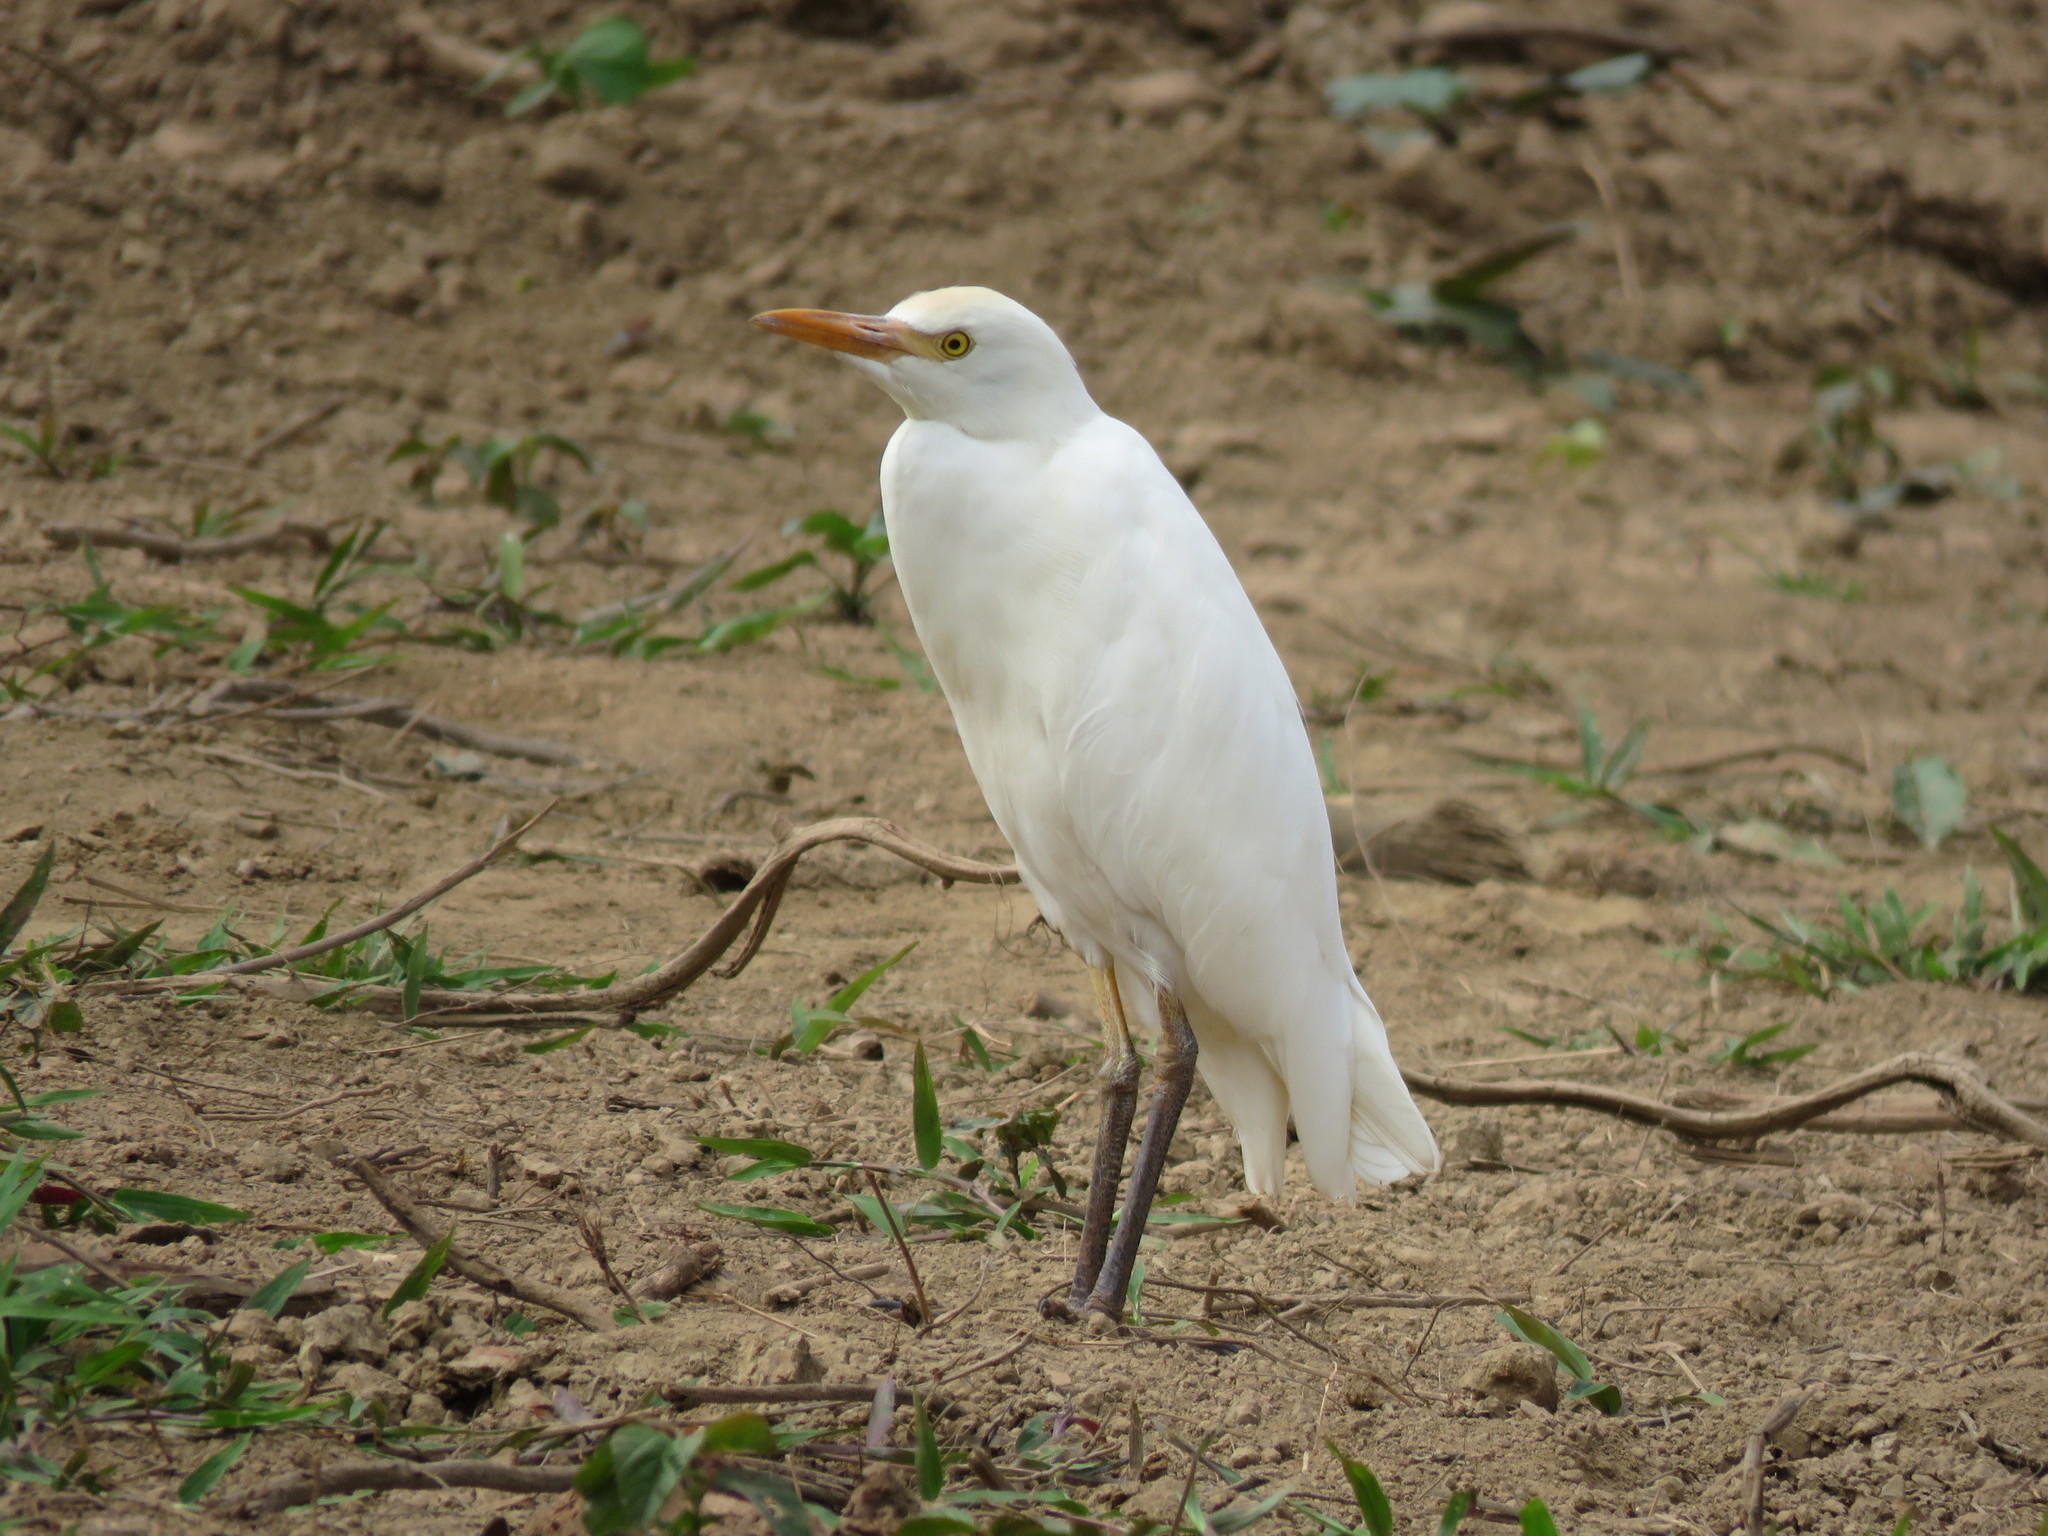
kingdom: Animalia
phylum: Chordata
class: Aves
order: Pelecaniformes
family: Ardeidae
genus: Bubulcus
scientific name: Bubulcus ibis
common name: Cattle egret
